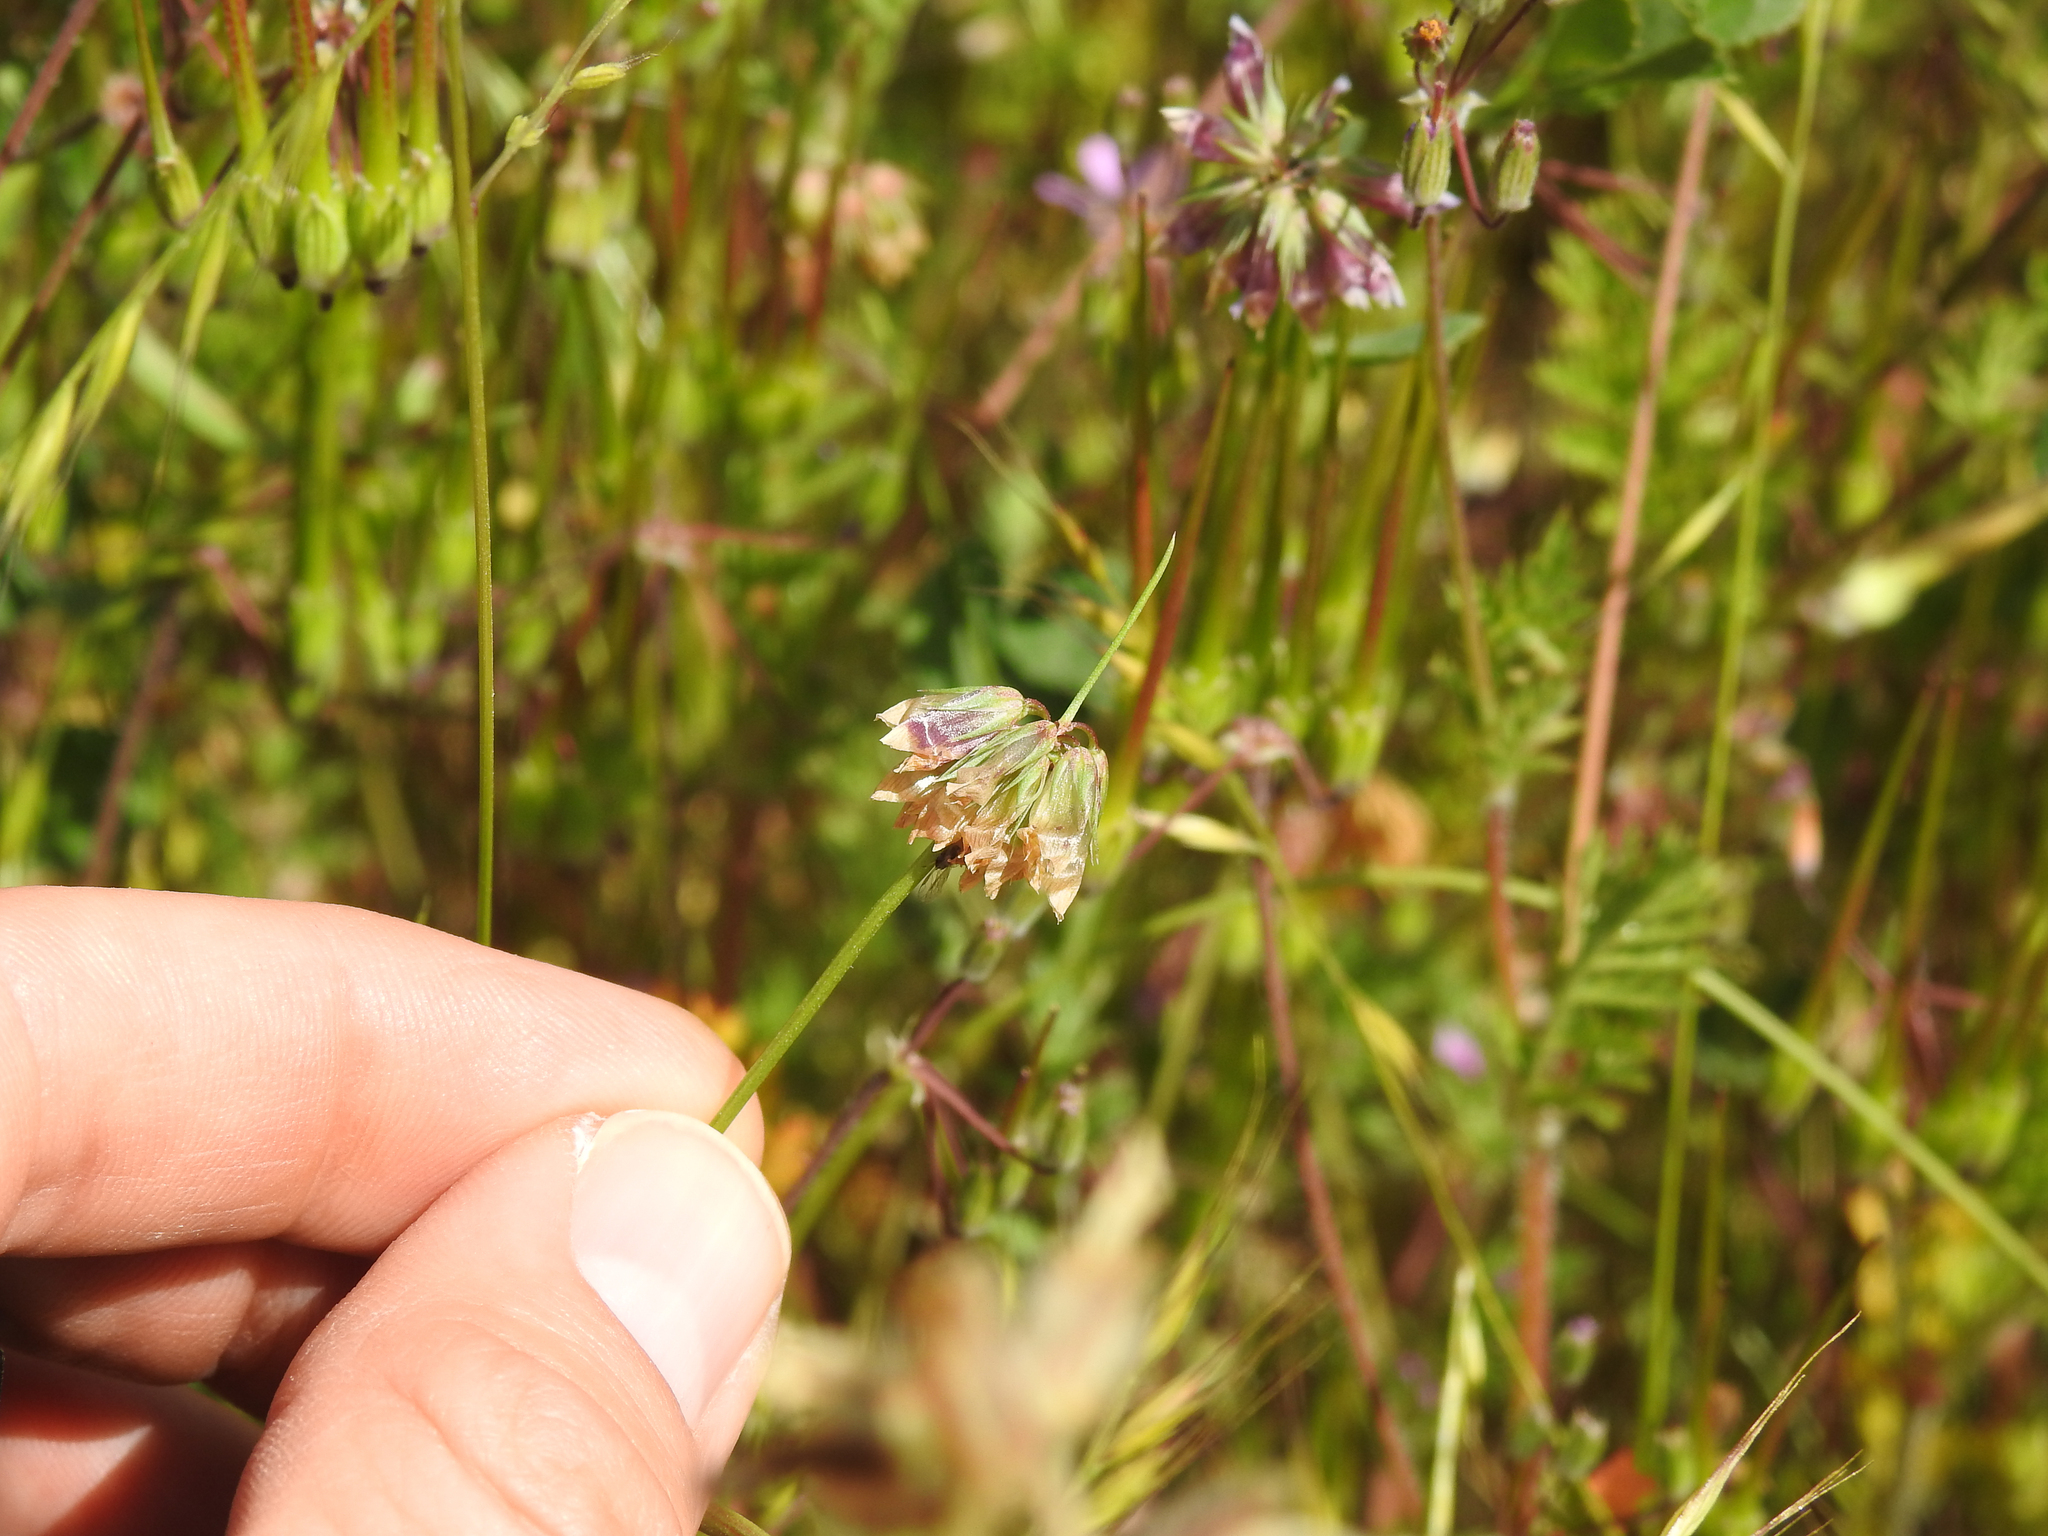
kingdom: Plantae
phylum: Tracheophyta
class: Magnoliopsida
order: Fabales
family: Fabaceae
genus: Trifolium
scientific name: Trifolium gracilentum
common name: Slender clover
